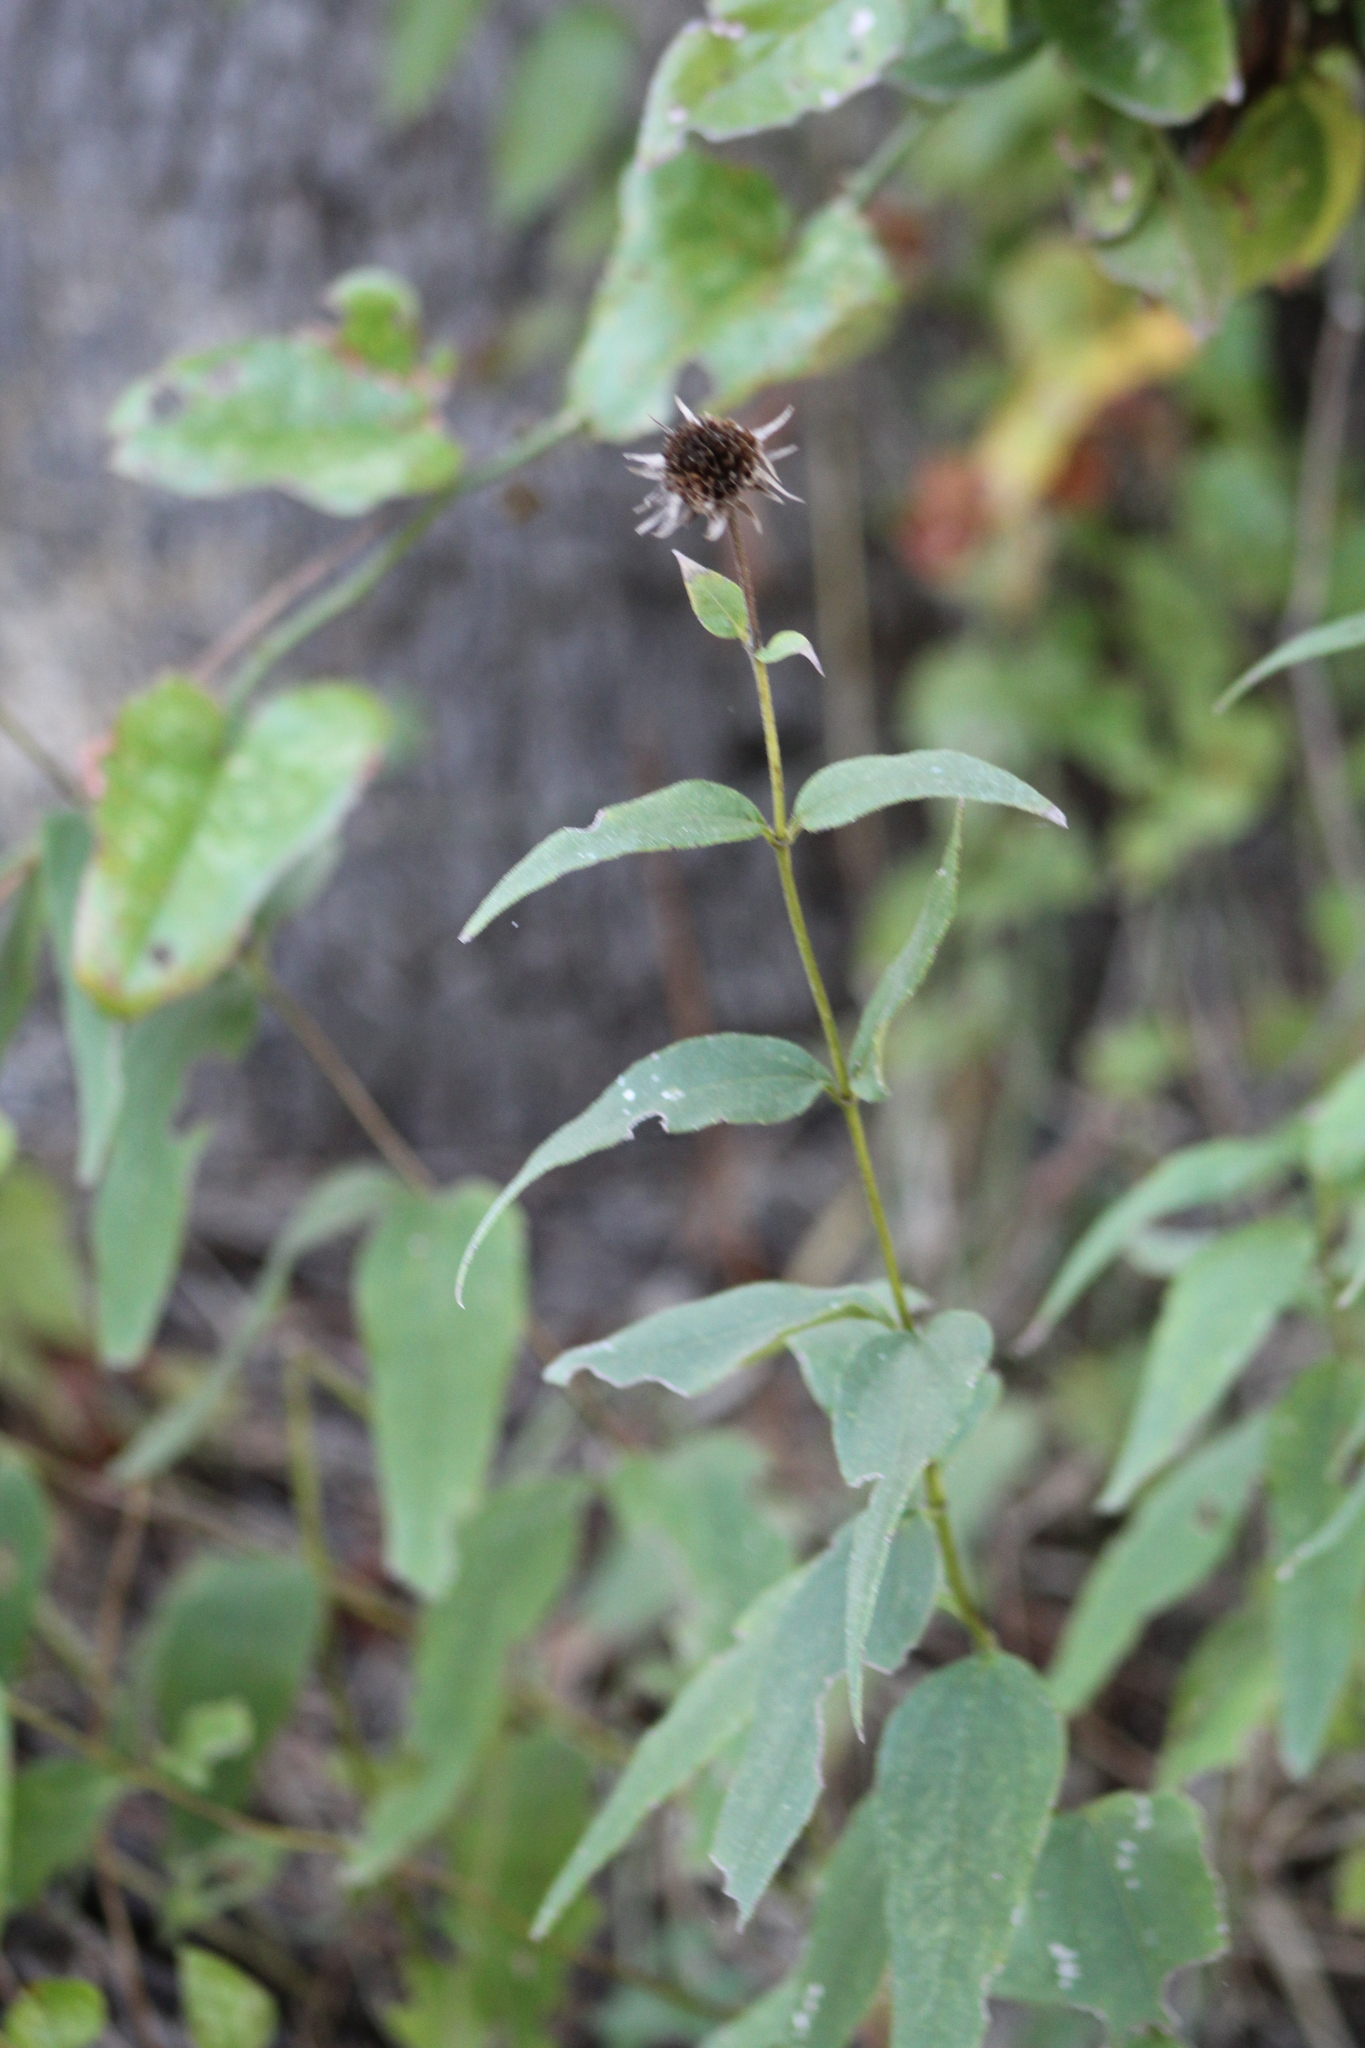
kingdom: Plantae
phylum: Tracheophyta
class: Magnoliopsida
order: Asterales
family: Asteraceae
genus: Helianthus
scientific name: Helianthus hirsutus
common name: Hairy sunflower
